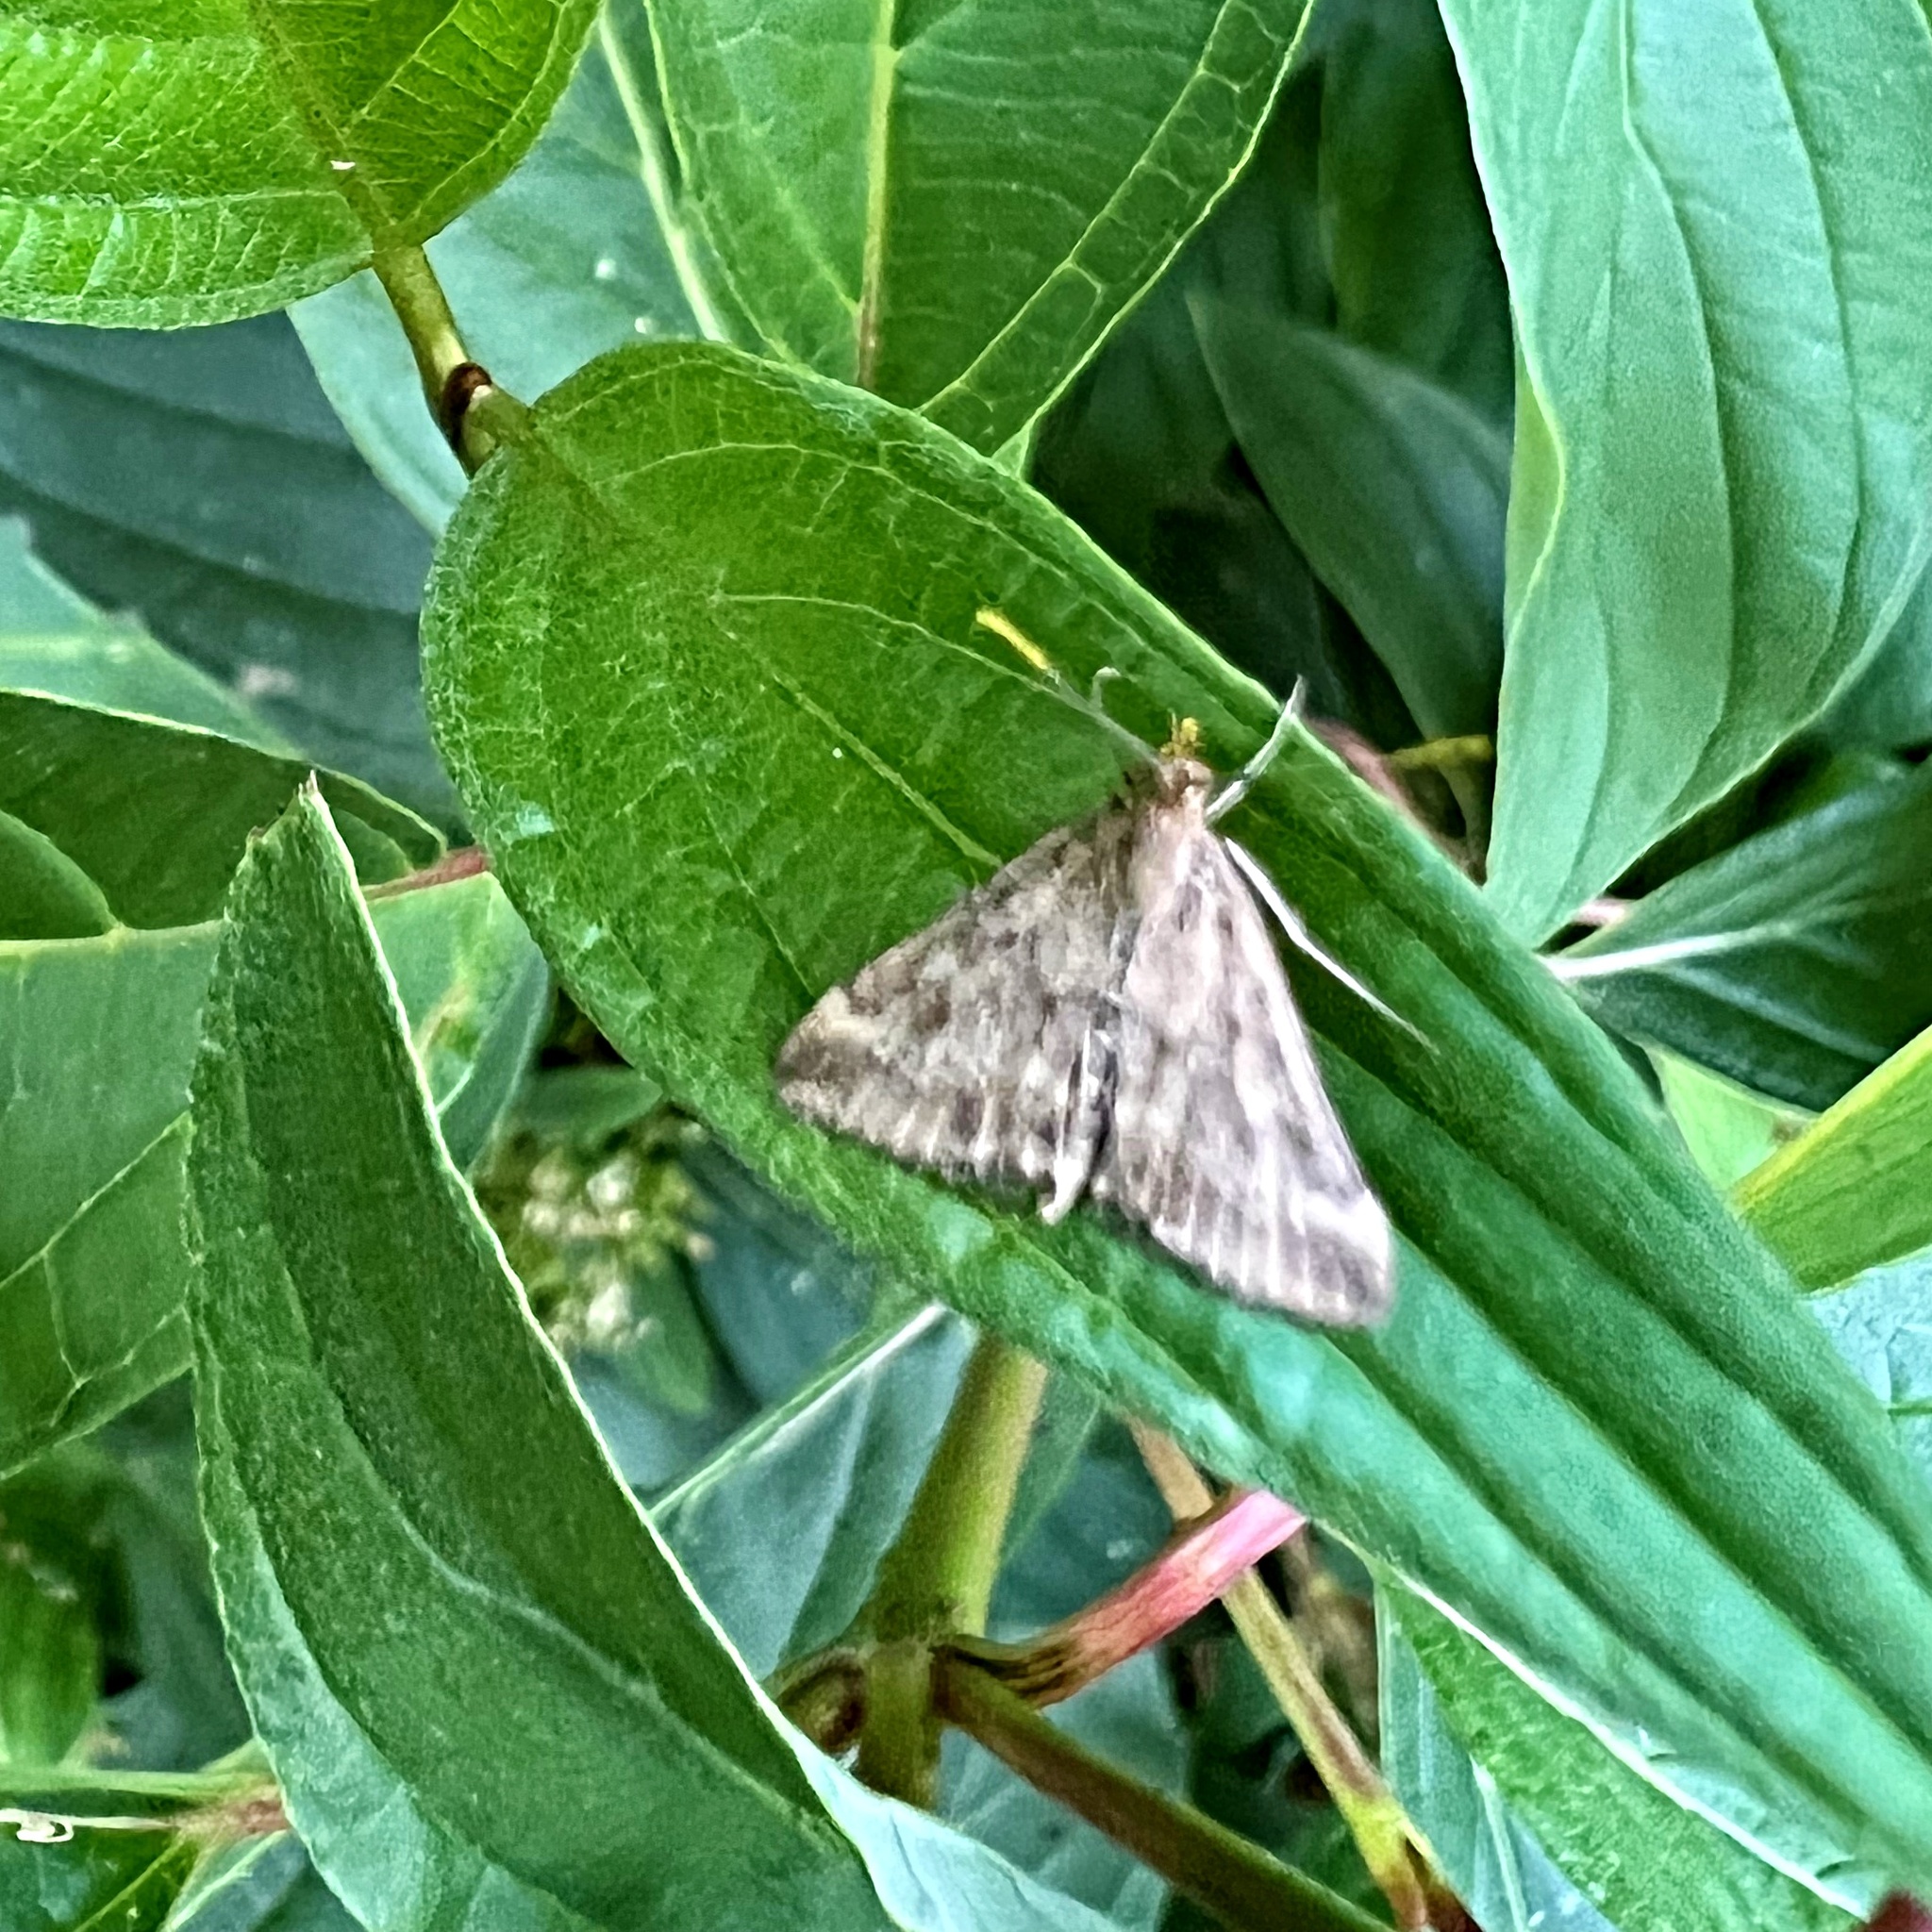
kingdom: Animalia
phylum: Arthropoda
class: Insecta
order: Lepidoptera
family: Crambidae
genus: Pyrausta
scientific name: Pyrausta despicata
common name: Straw-barred pearl
